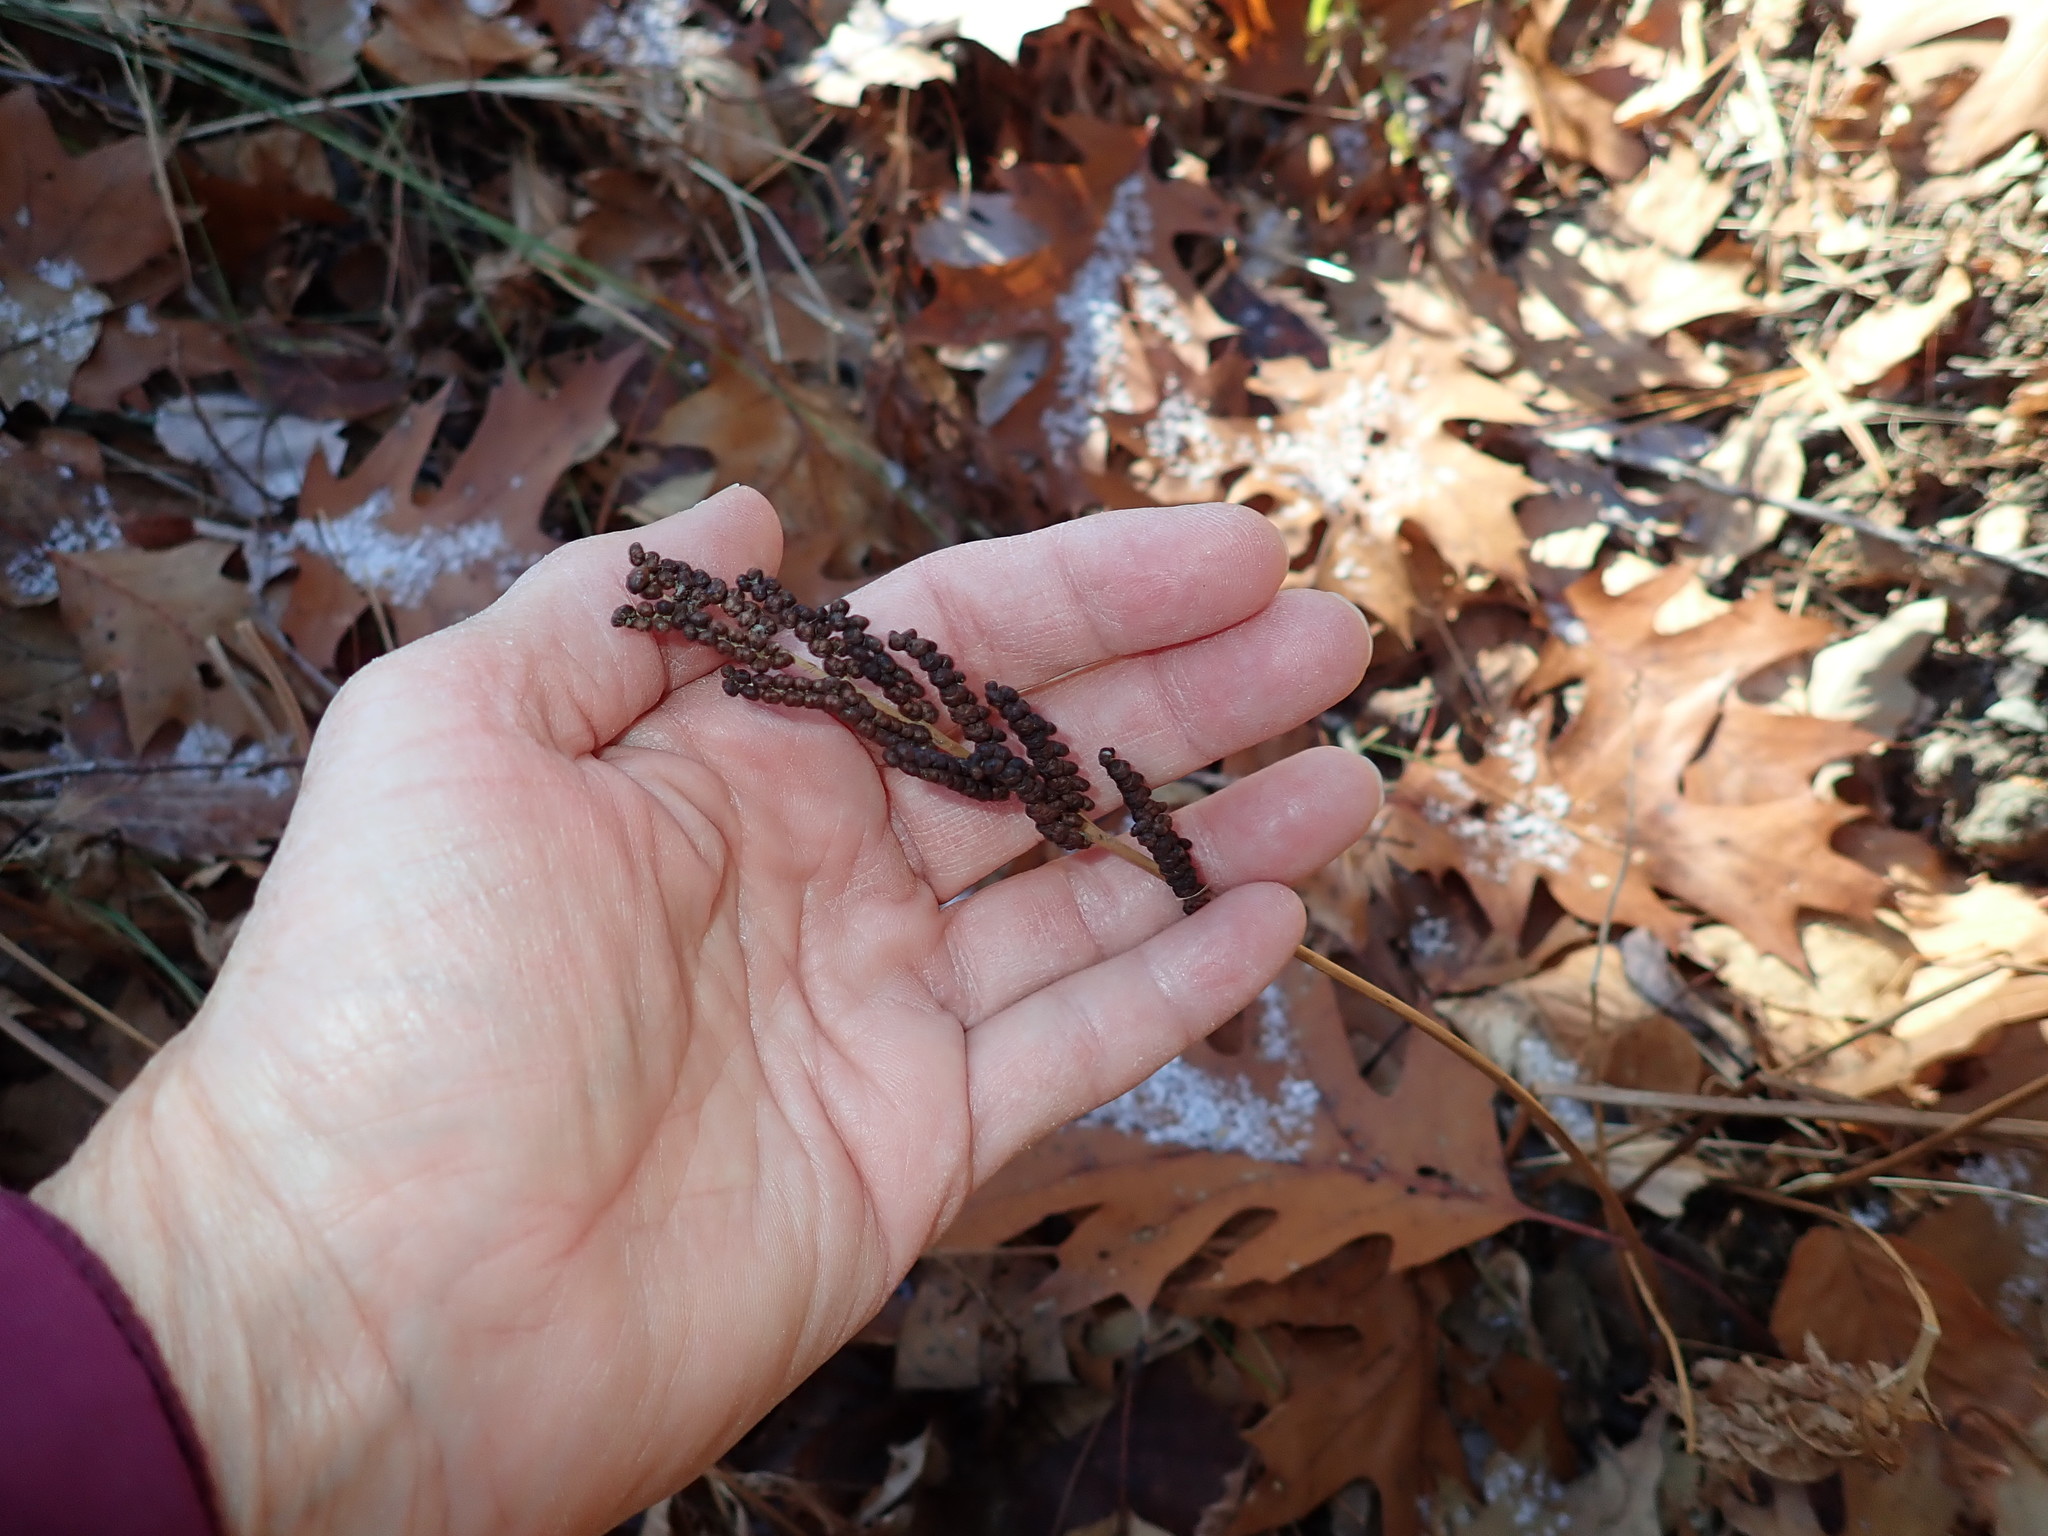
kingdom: Plantae
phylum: Tracheophyta
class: Polypodiopsida
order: Polypodiales
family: Onocleaceae
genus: Onoclea
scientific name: Onoclea sensibilis
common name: Sensitive fern
